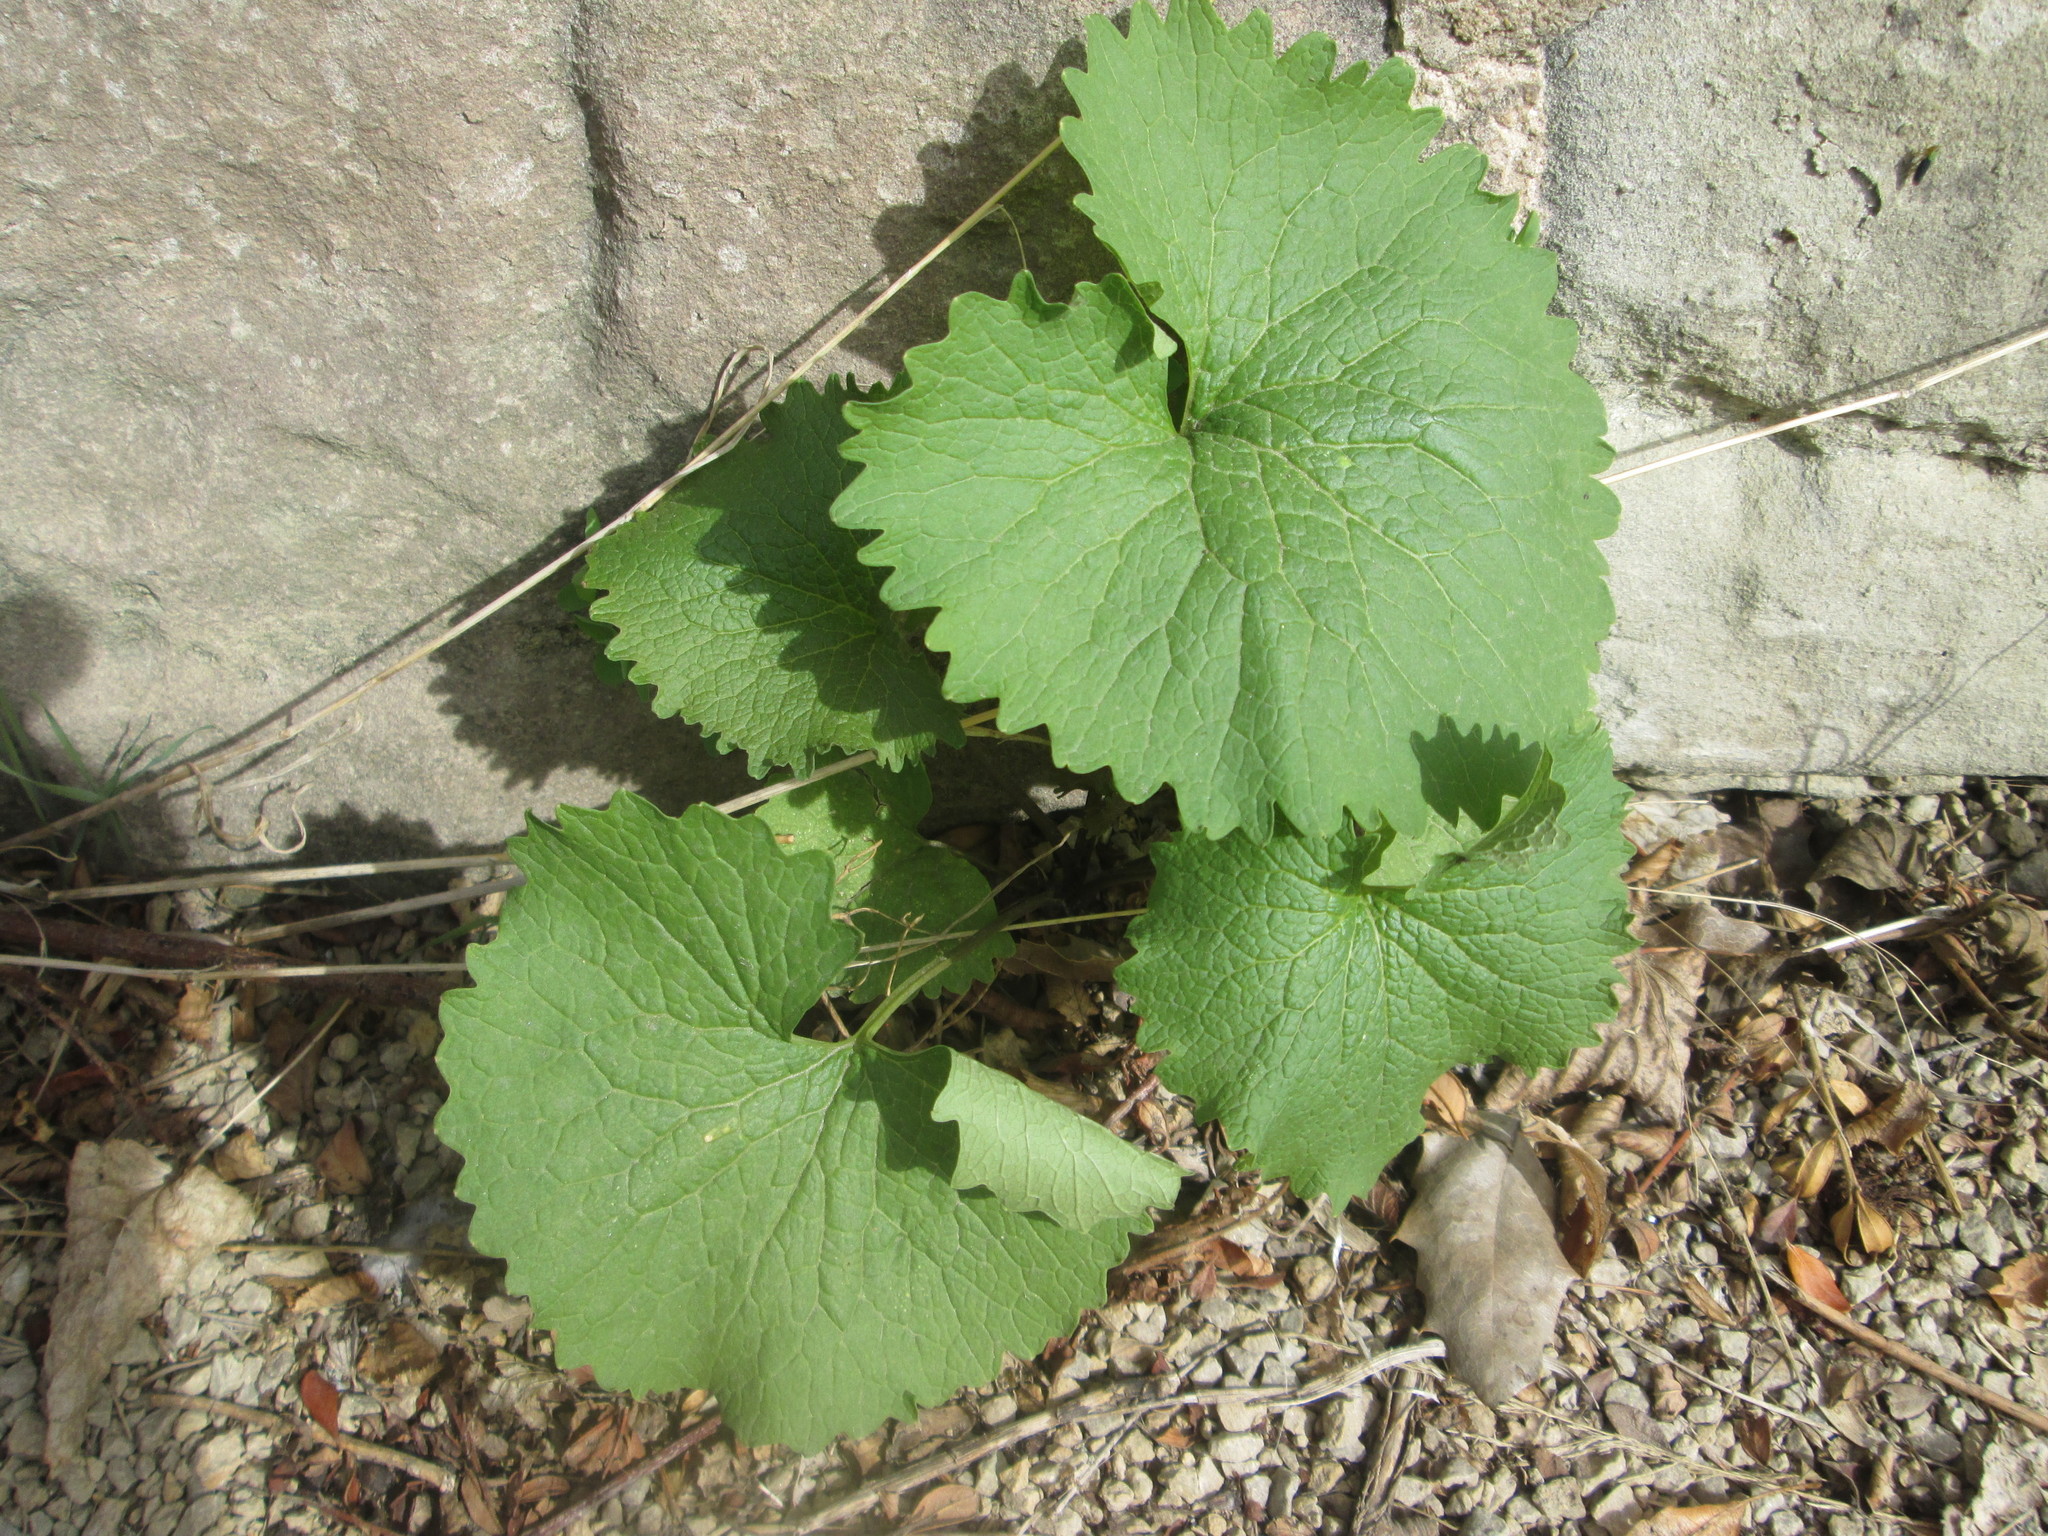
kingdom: Plantae
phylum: Tracheophyta
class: Magnoliopsida
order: Brassicales
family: Brassicaceae
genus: Alliaria
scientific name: Alliaria petiolata
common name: Garlic mustard
